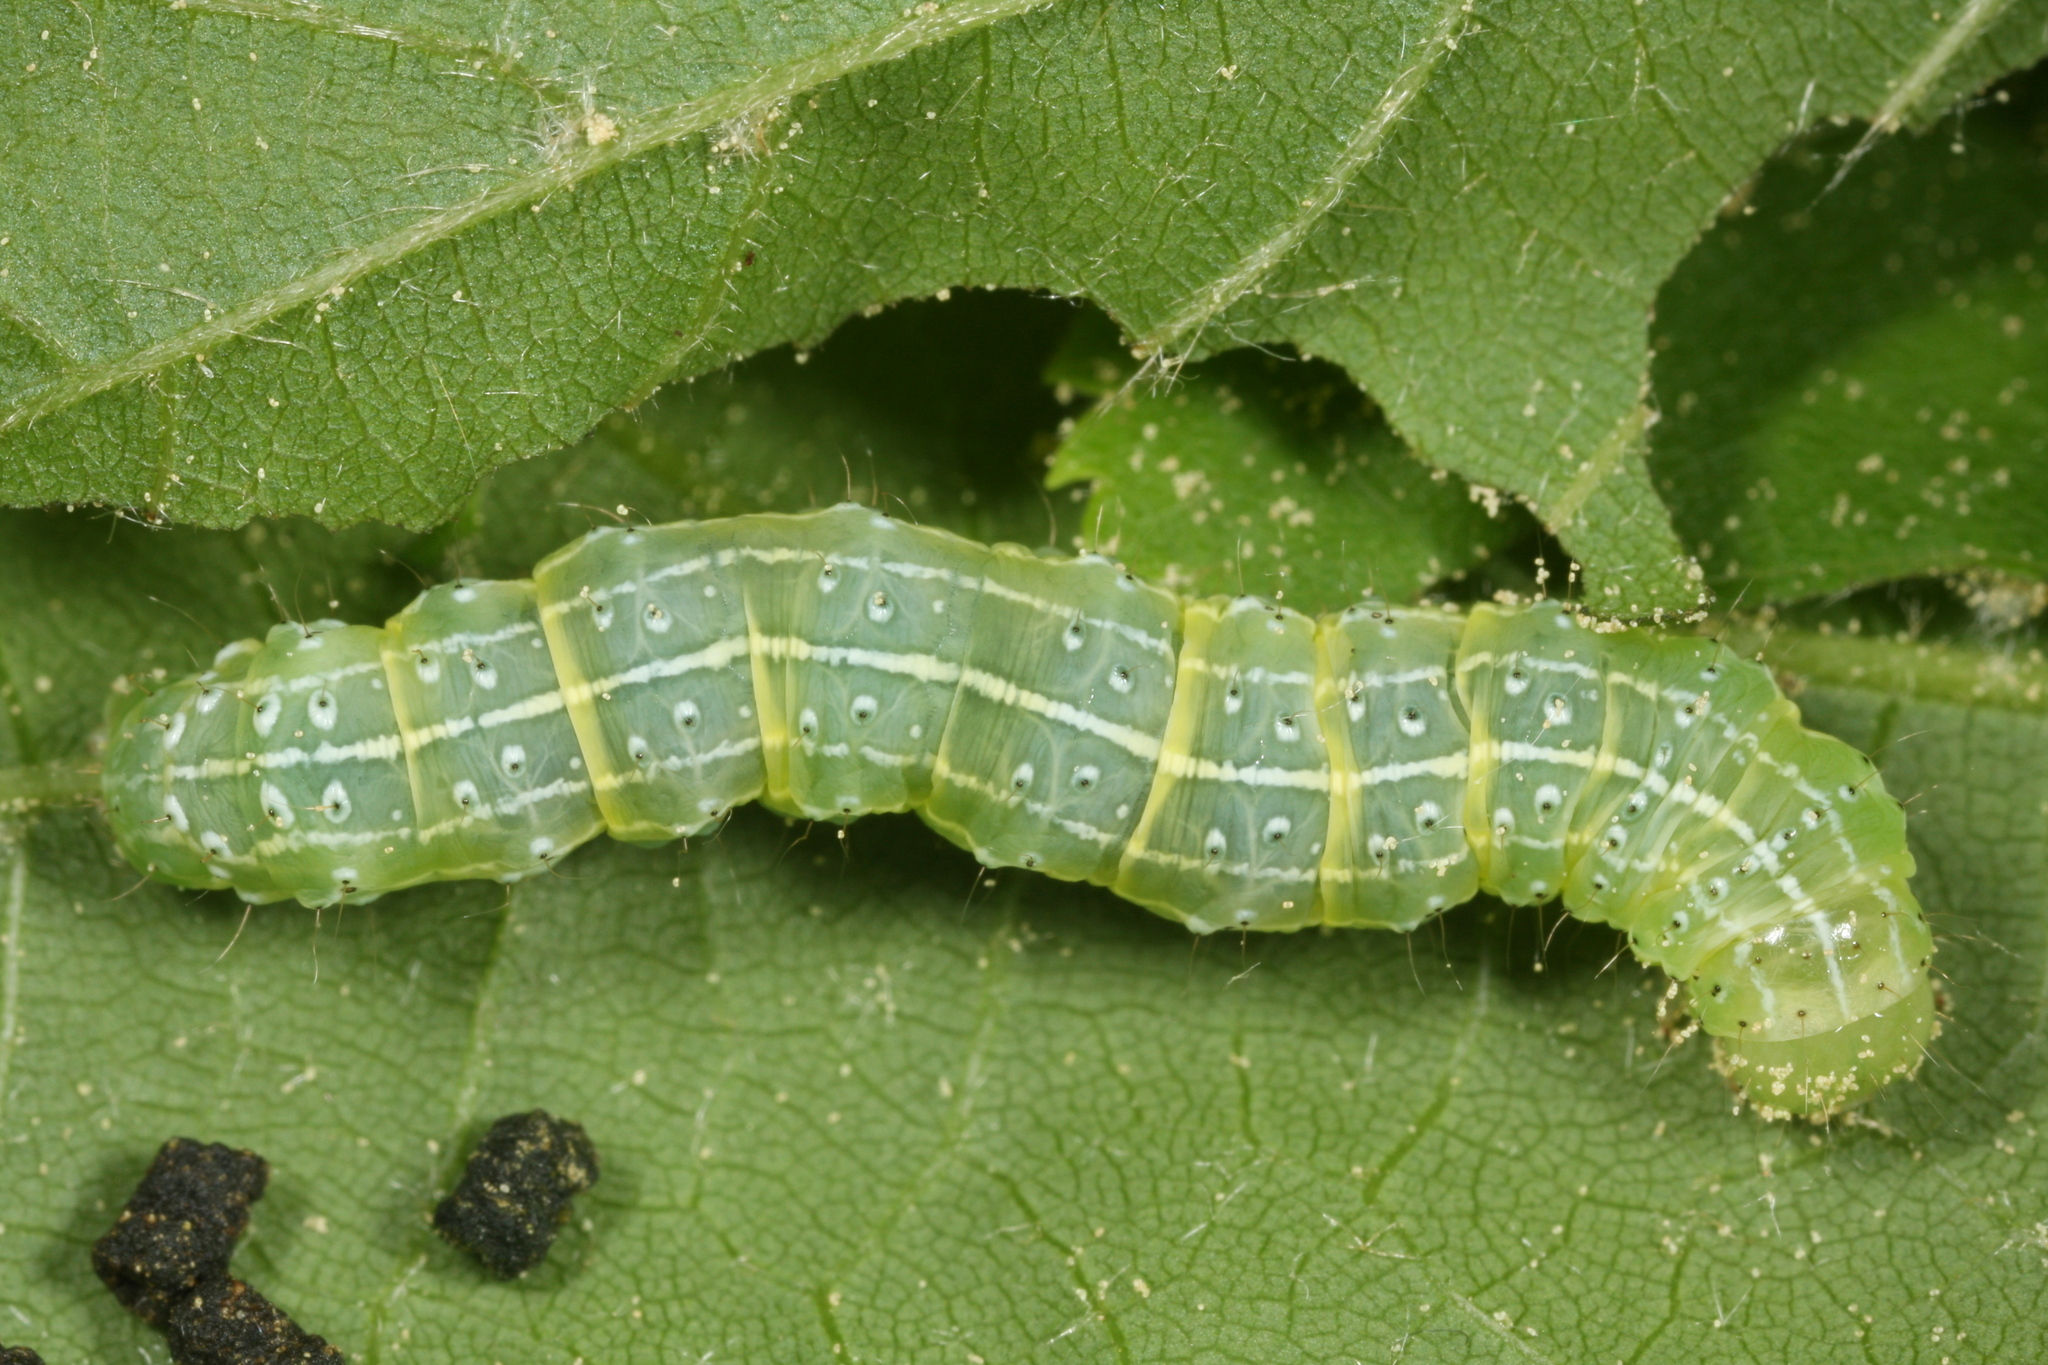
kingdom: Animalia
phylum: Arthropoda
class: Insecta
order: Lepidoptera
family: Noctuidae
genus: Cosmia
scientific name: Cosmia trapezina
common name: Dun-bar
